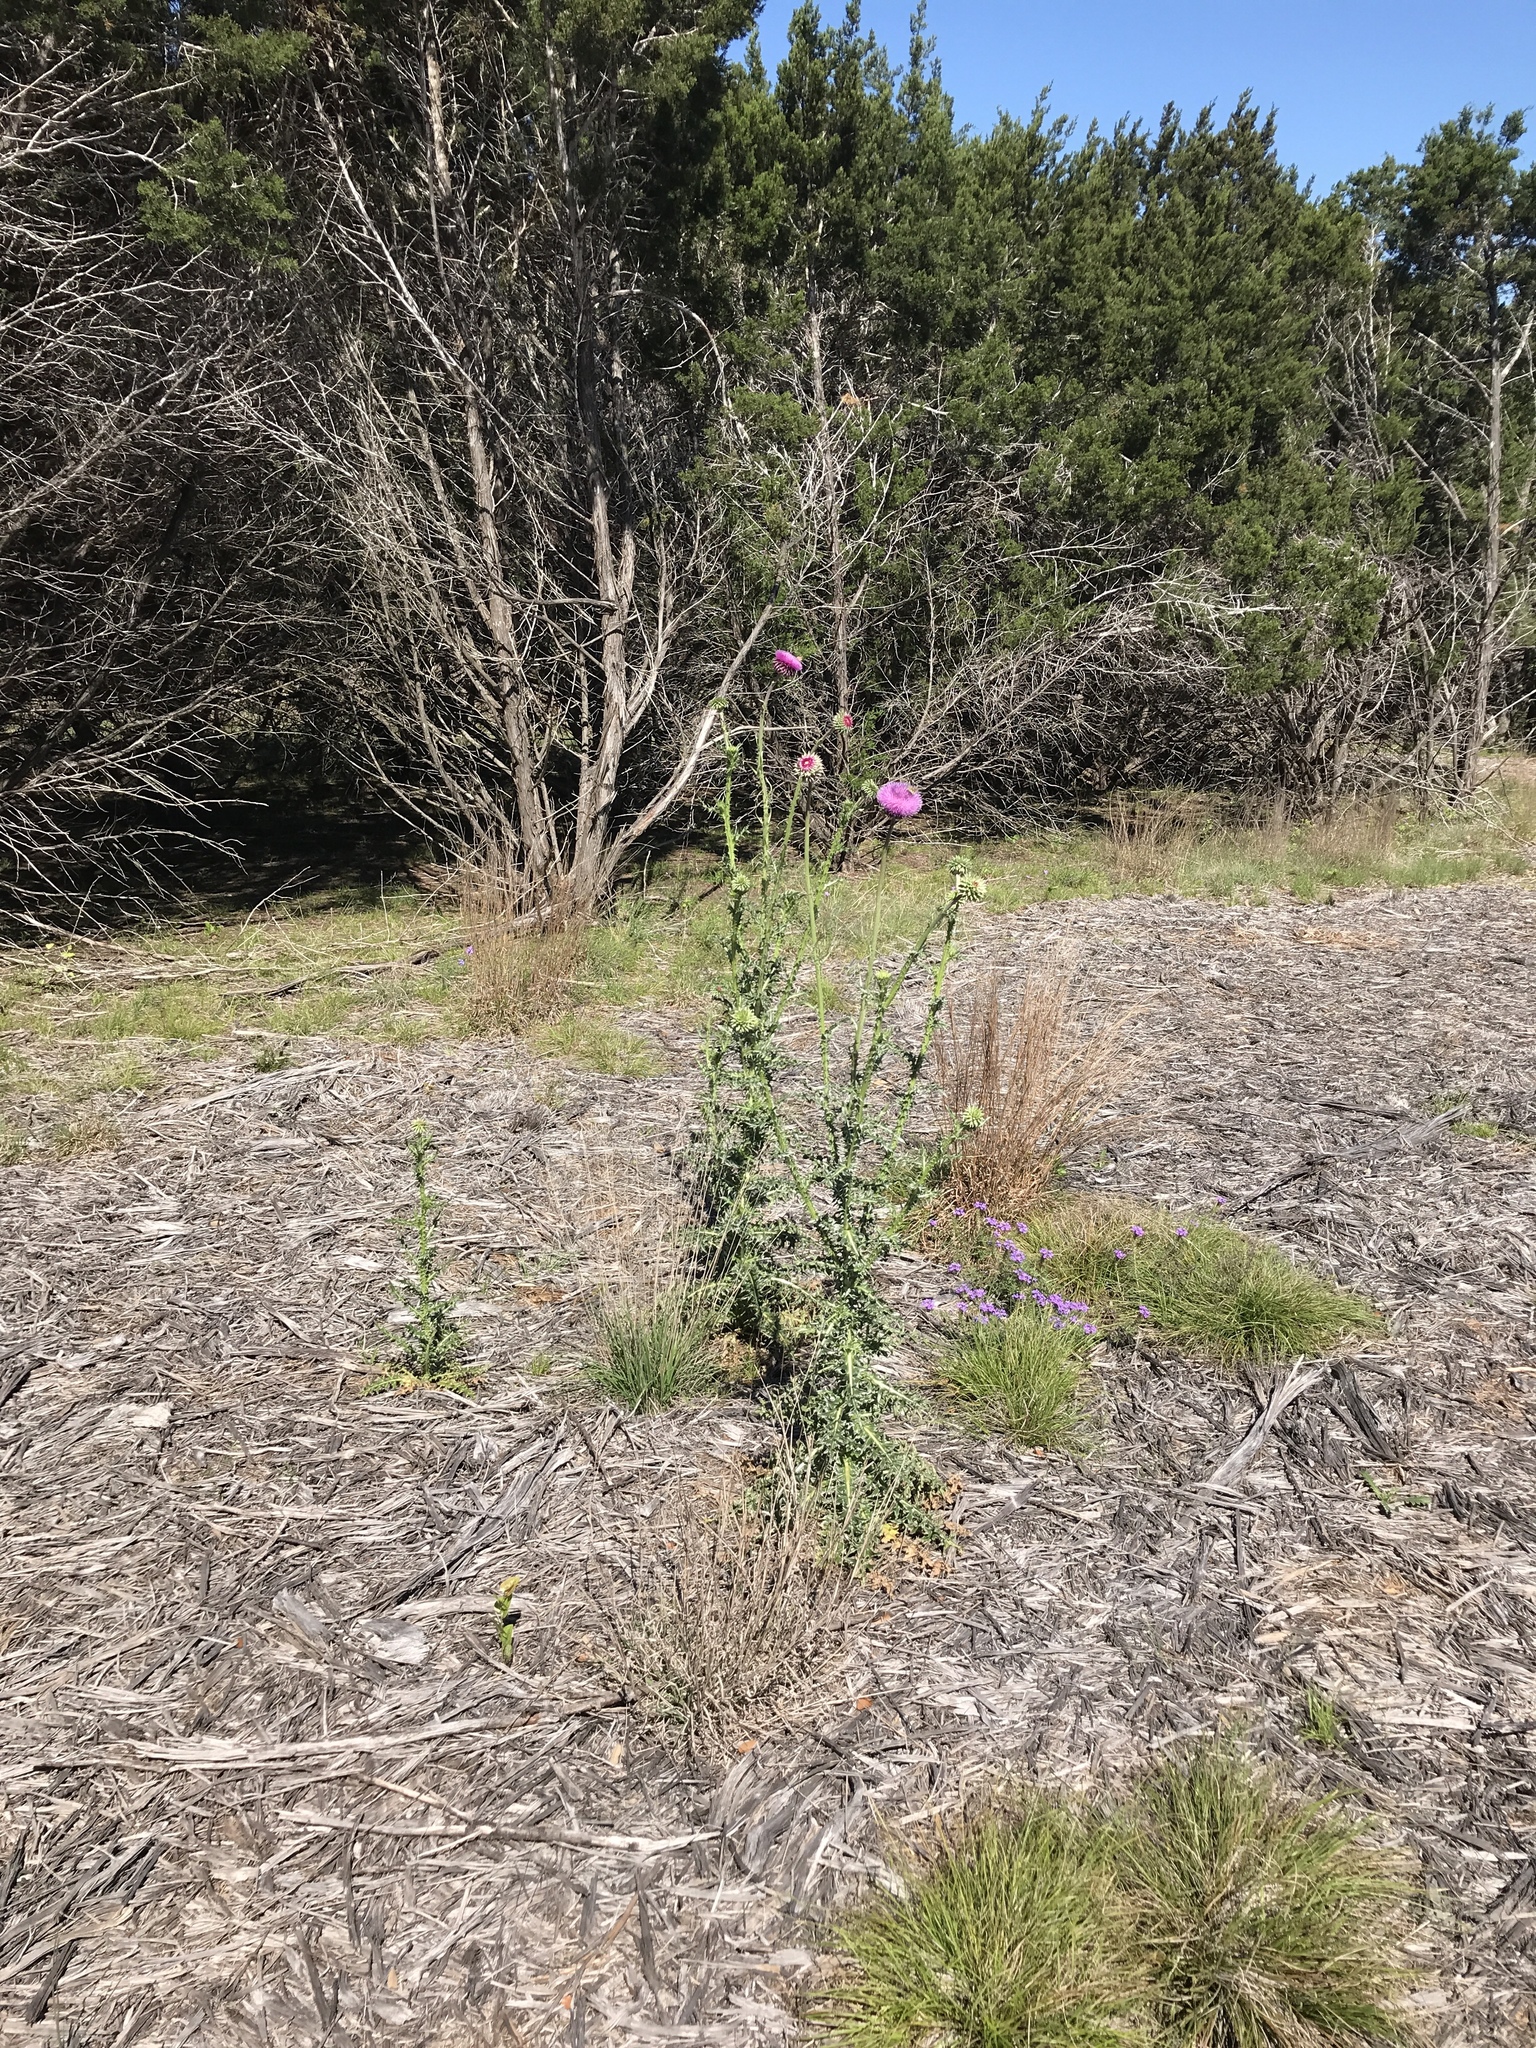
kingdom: Plantae
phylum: Tracheophyta
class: Magnoliopsida
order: Asterales
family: Asteraceae
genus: Carduus
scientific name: Carduus nutans
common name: Musk thistle
